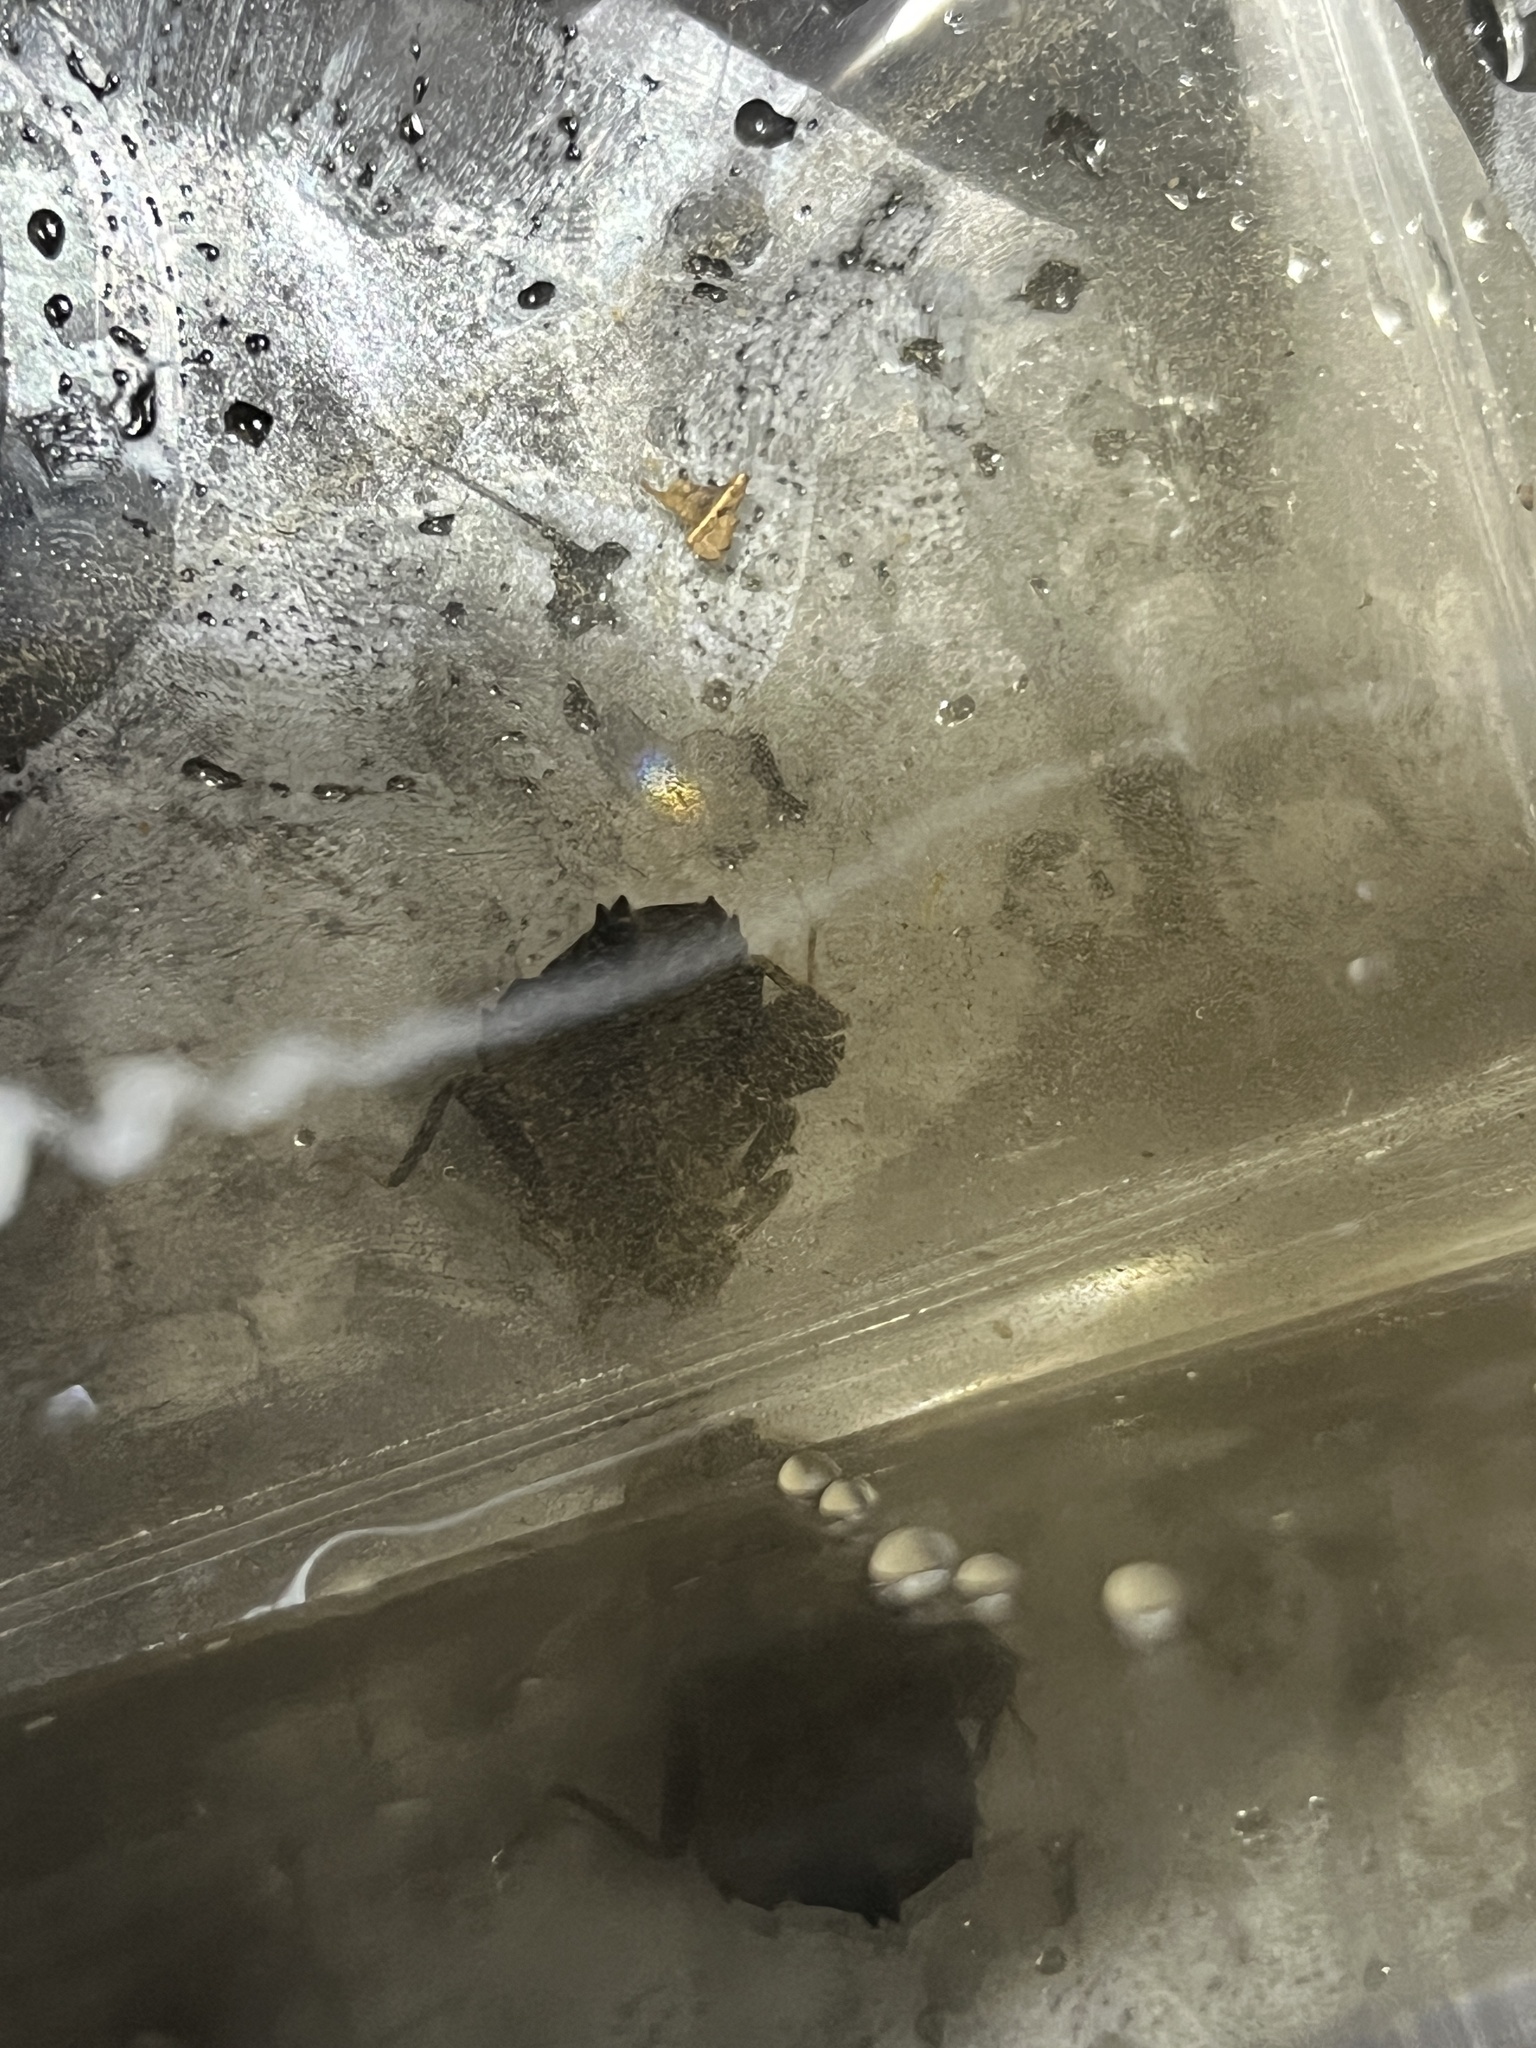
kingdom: Animalia
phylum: Arthropoda
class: Insecta
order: Odonata
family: Gomphidae
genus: Hagenius
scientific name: Hagenius brevistylus
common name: Dragonhunter
